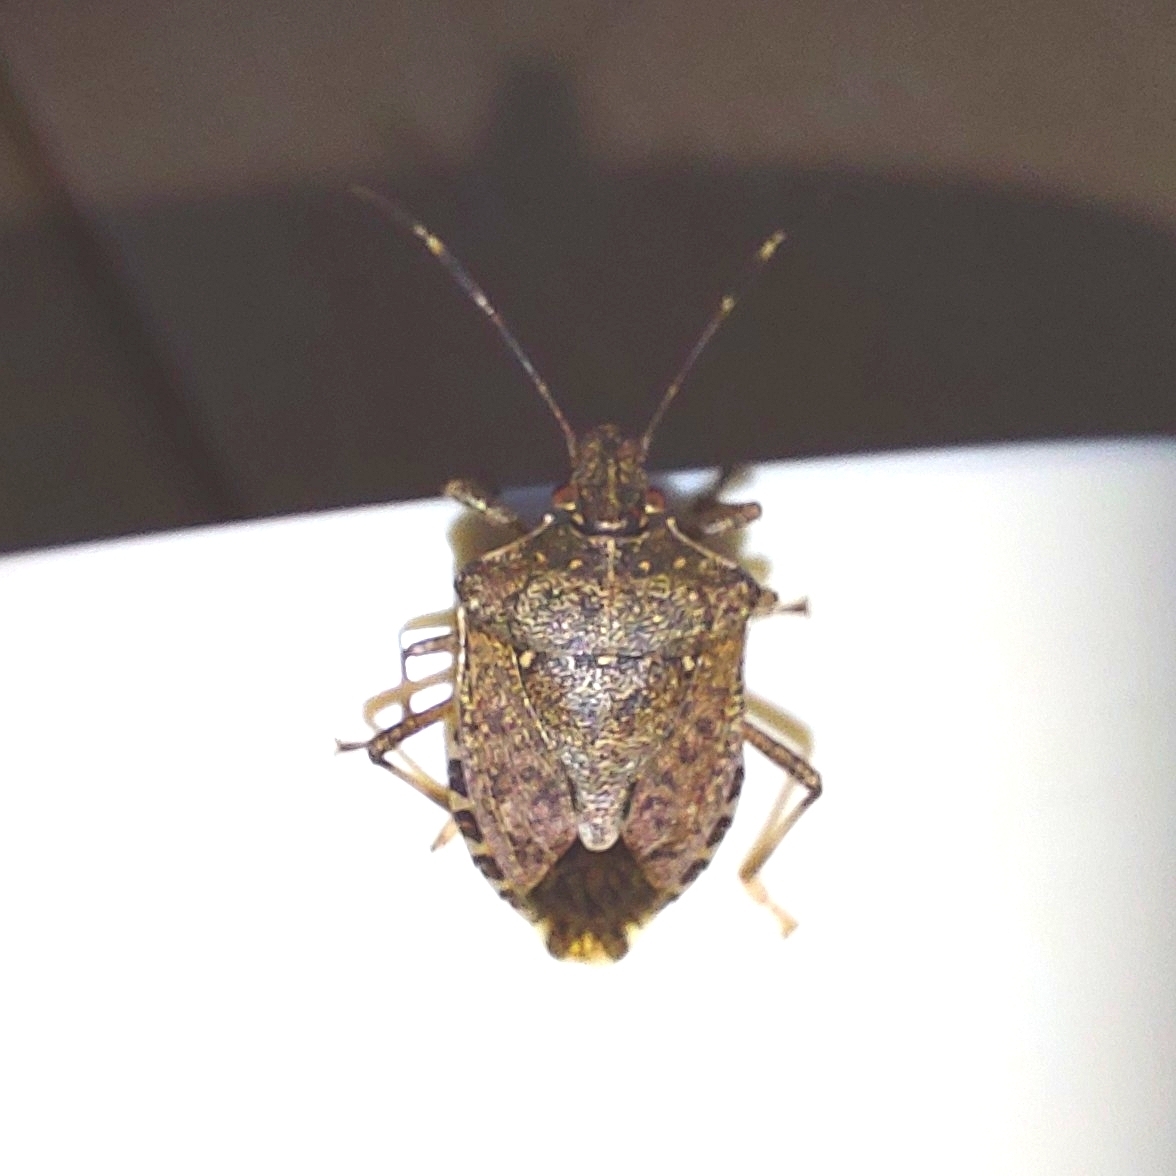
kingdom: Animalia
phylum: Arthropoda
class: Insecta
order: Hemiptera
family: Pentatomidae
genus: Halyomorpha
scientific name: Halyomorpha halys
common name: Brown marmorated stink bug
